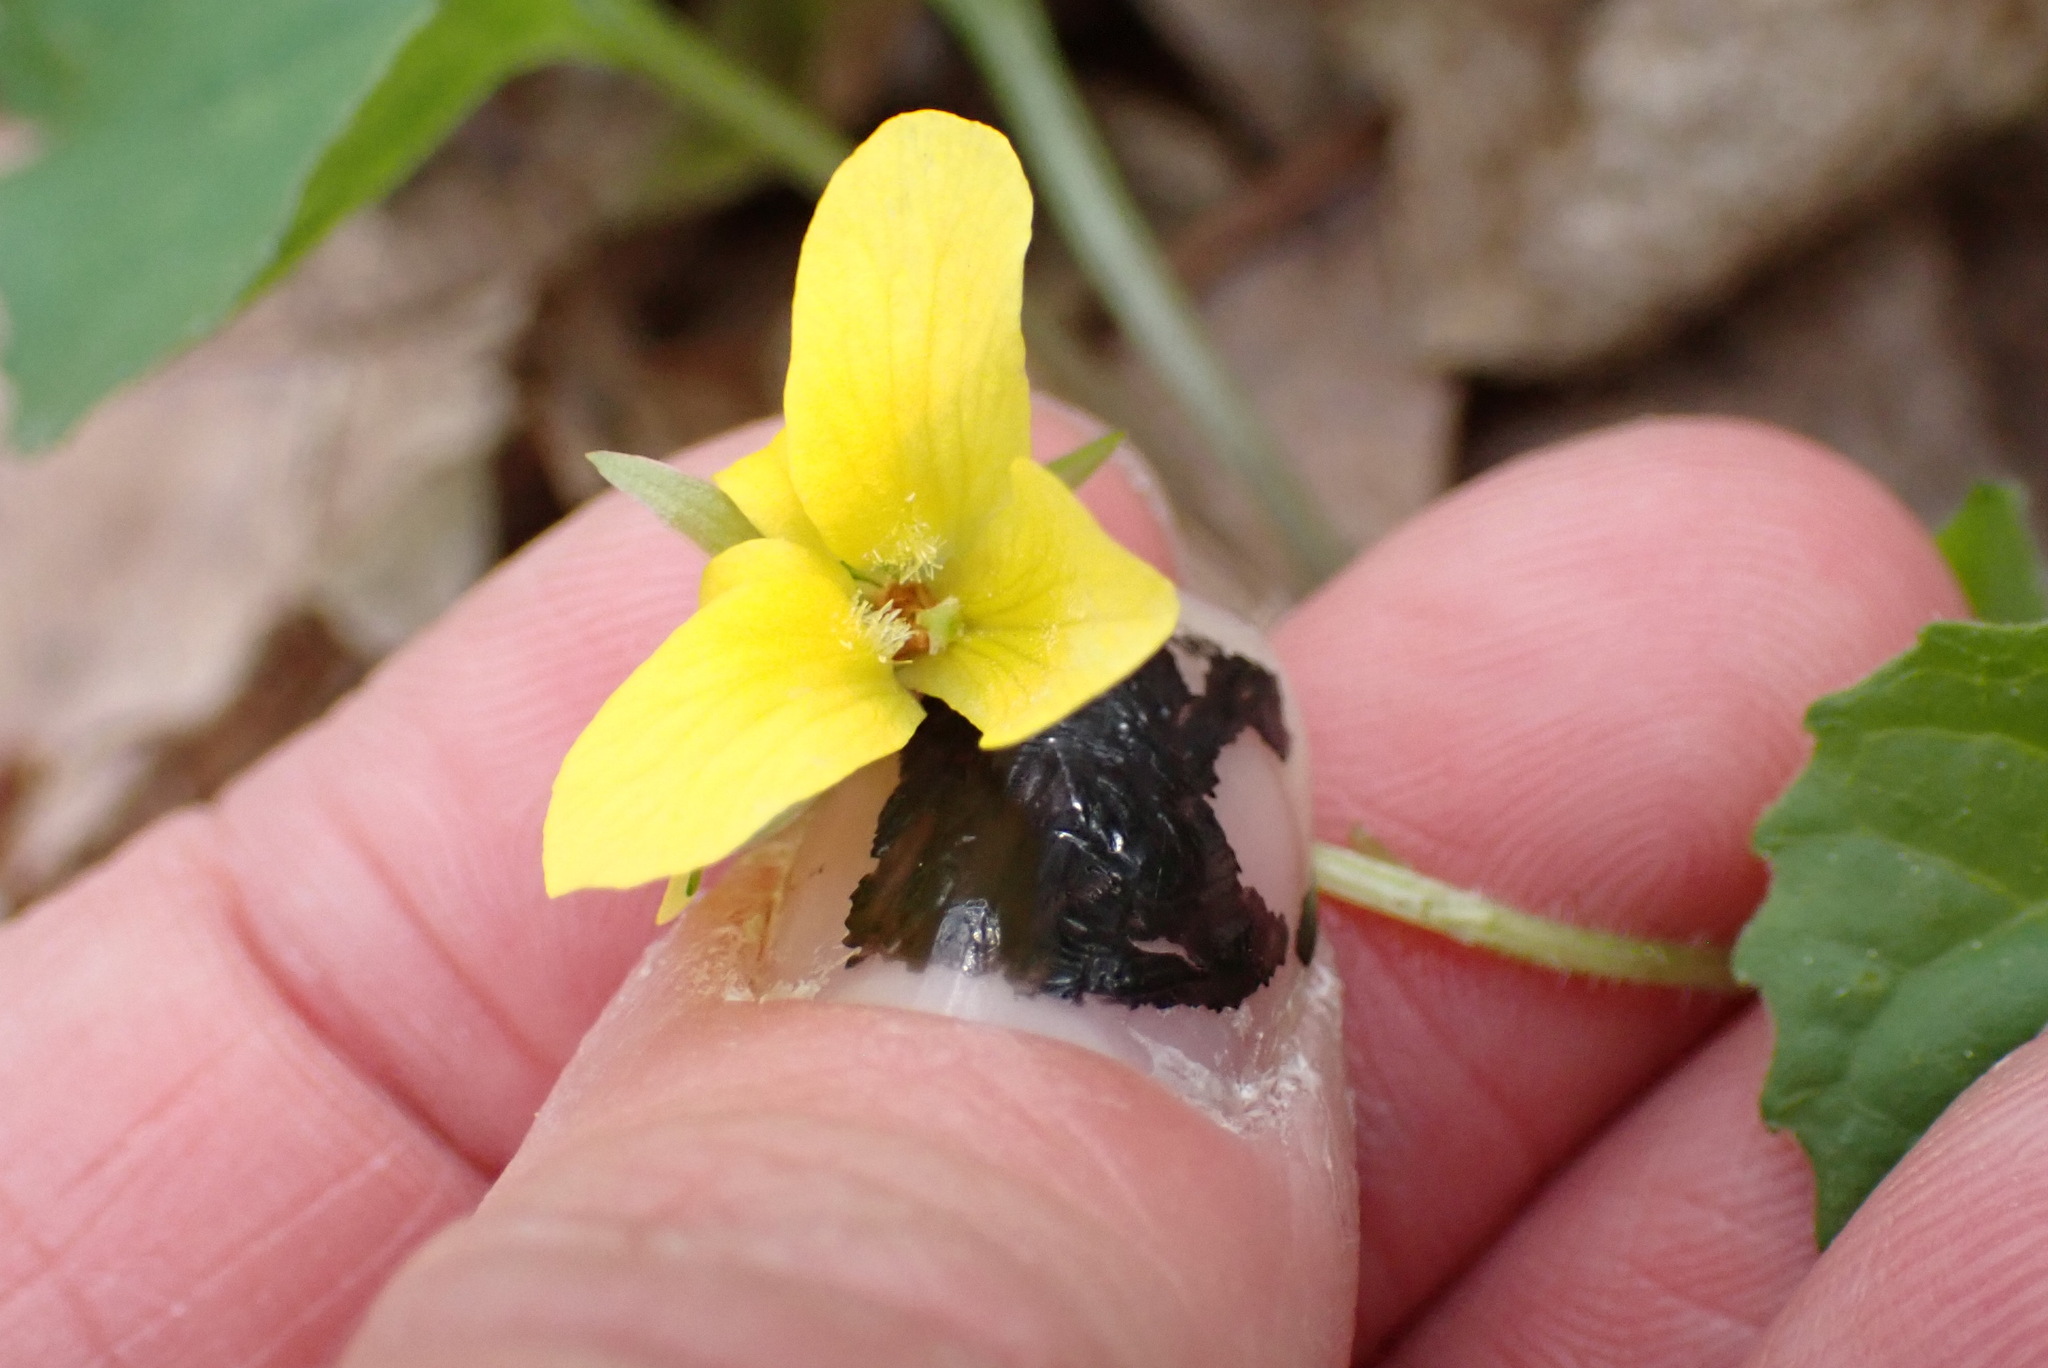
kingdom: Plantae
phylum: Tracheophyta
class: Magnoliopsida
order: Malpighiales
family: Violaceae
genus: Viola
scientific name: Viola eriocarpa
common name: Smooth yellow violet
